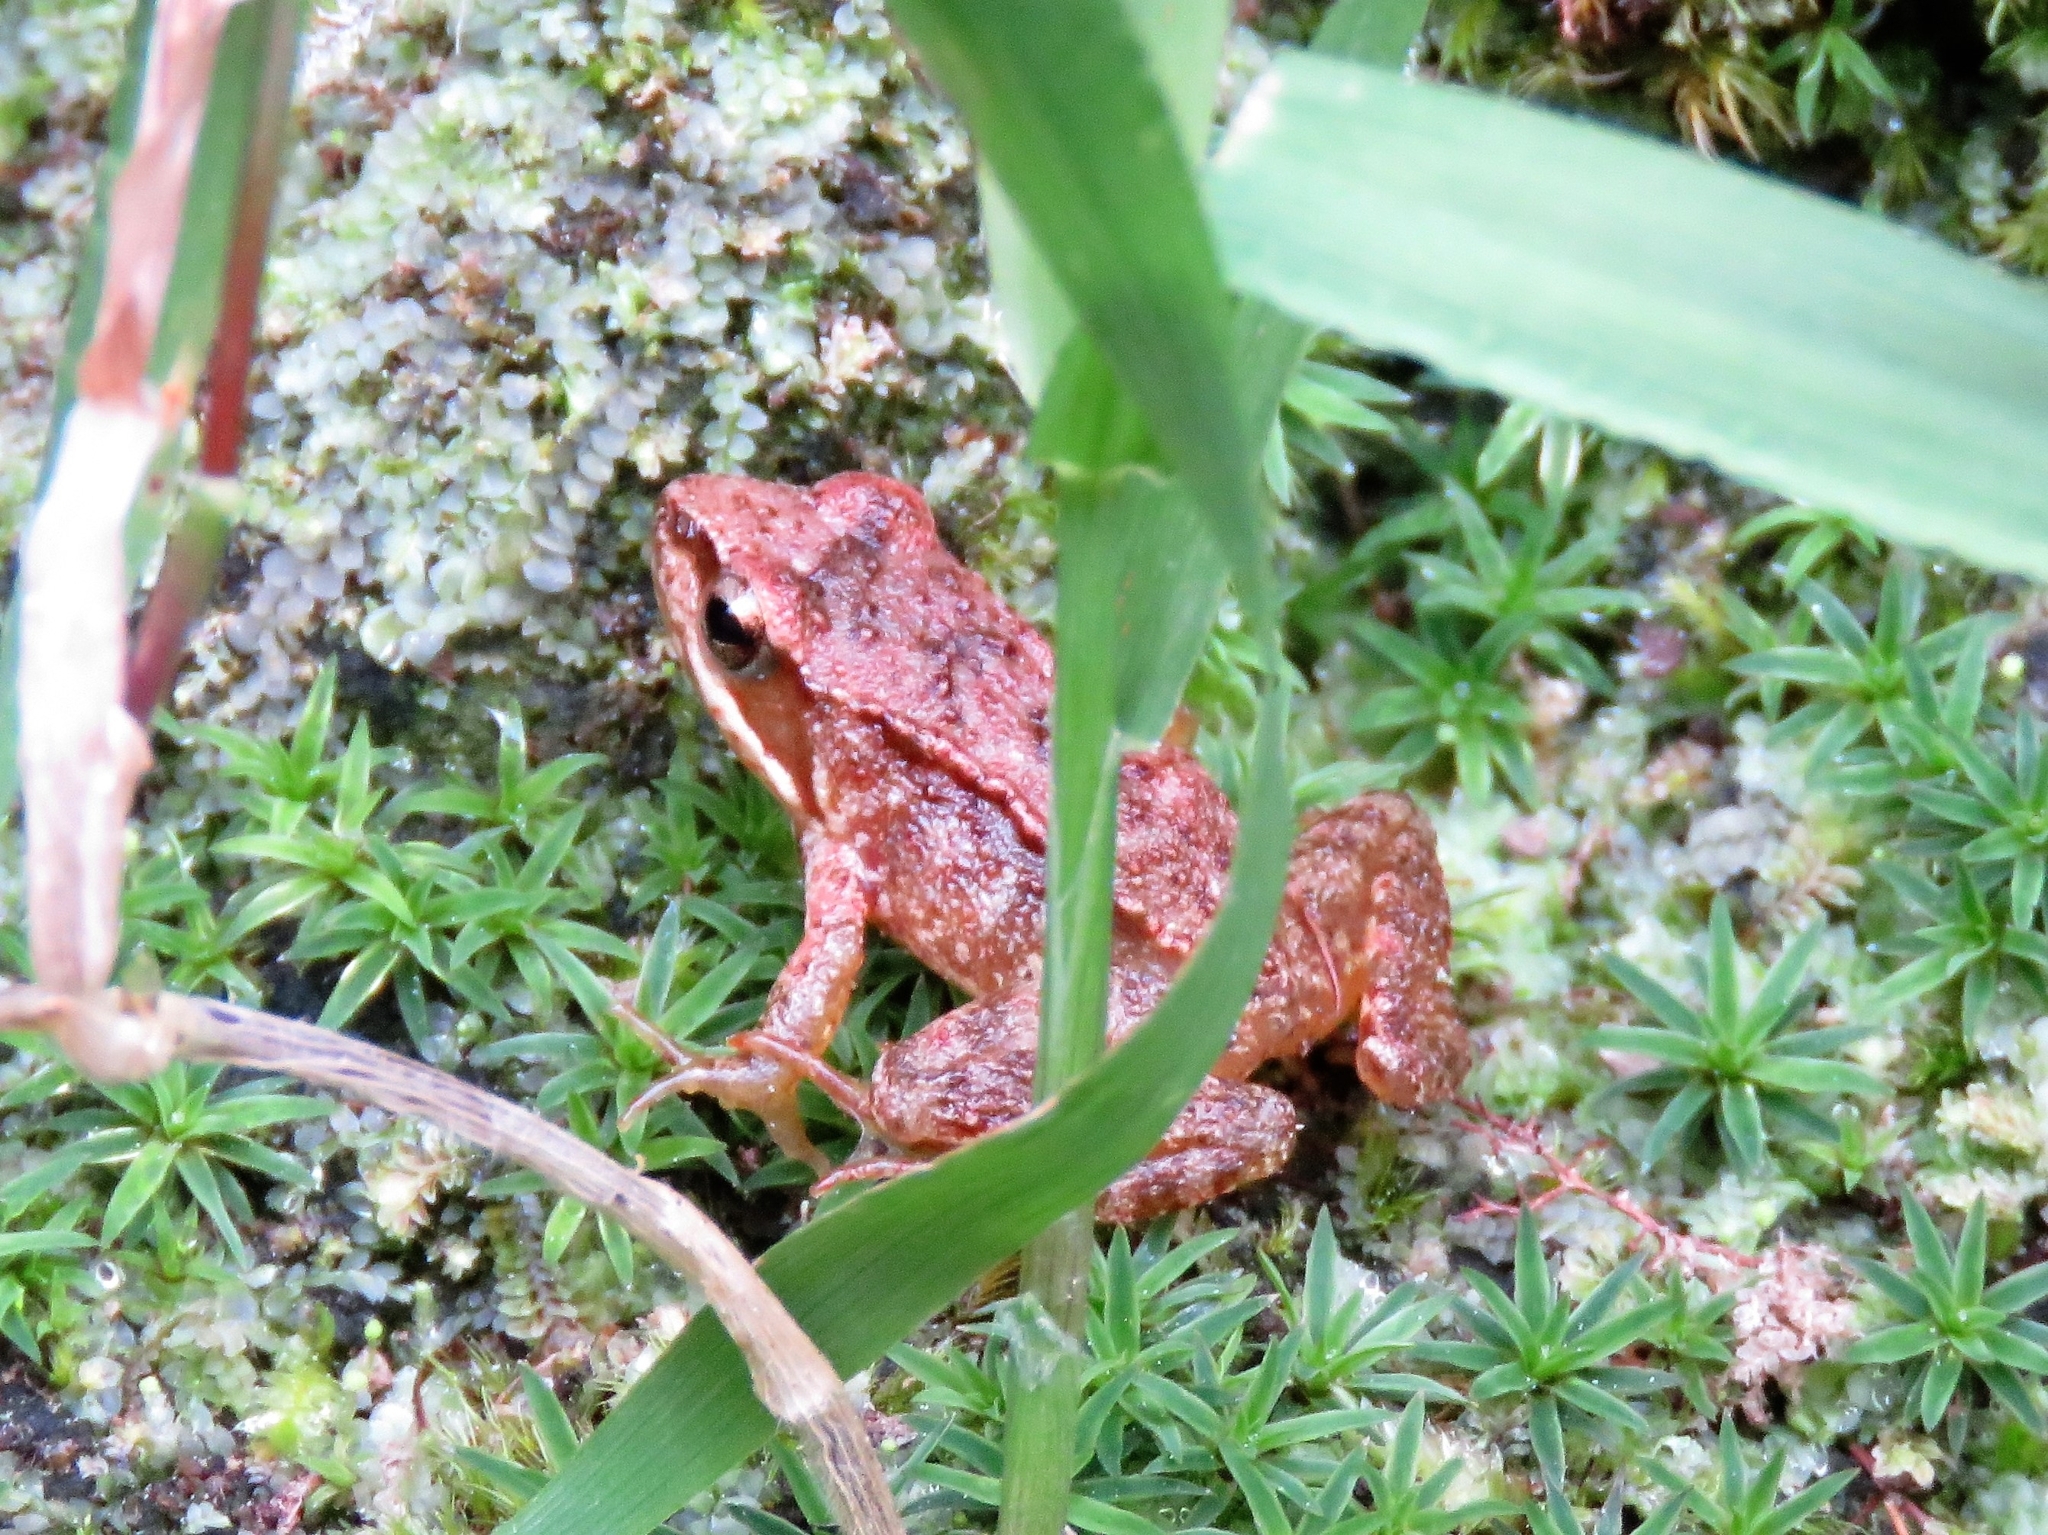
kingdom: Animalia
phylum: Chordata
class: Amphibia
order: Anura
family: Ranidae
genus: Rana
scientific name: Rana iberica
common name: Iberian frog
